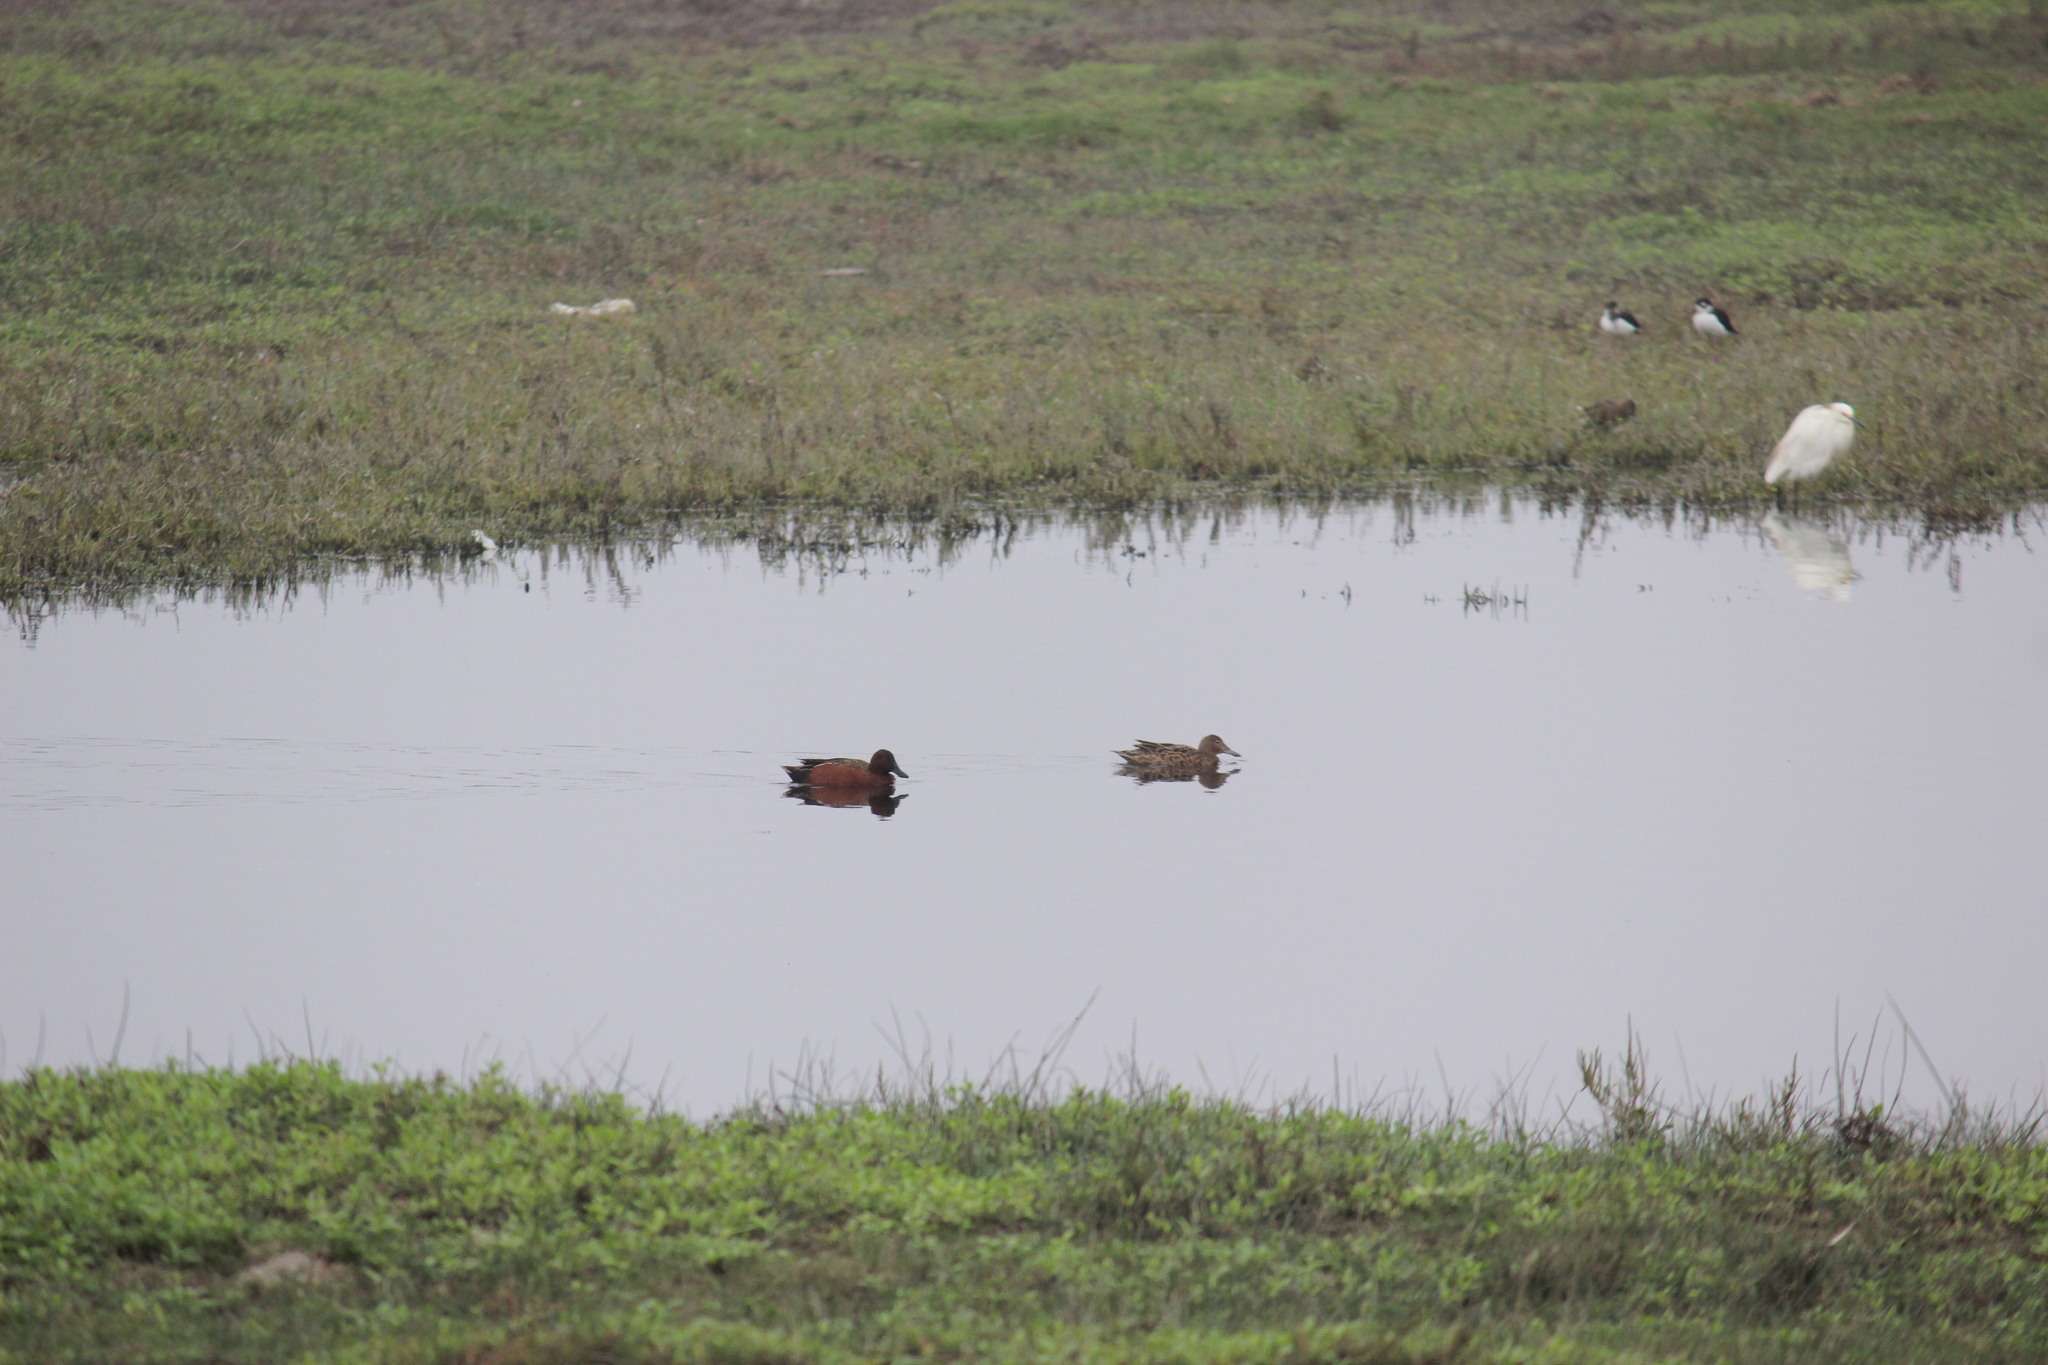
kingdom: Animalia
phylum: Chordata
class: Aves
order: Anseriformes
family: Anatidae
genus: Spatula
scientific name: Spatula cyanoptera
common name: Cinnamon teal
